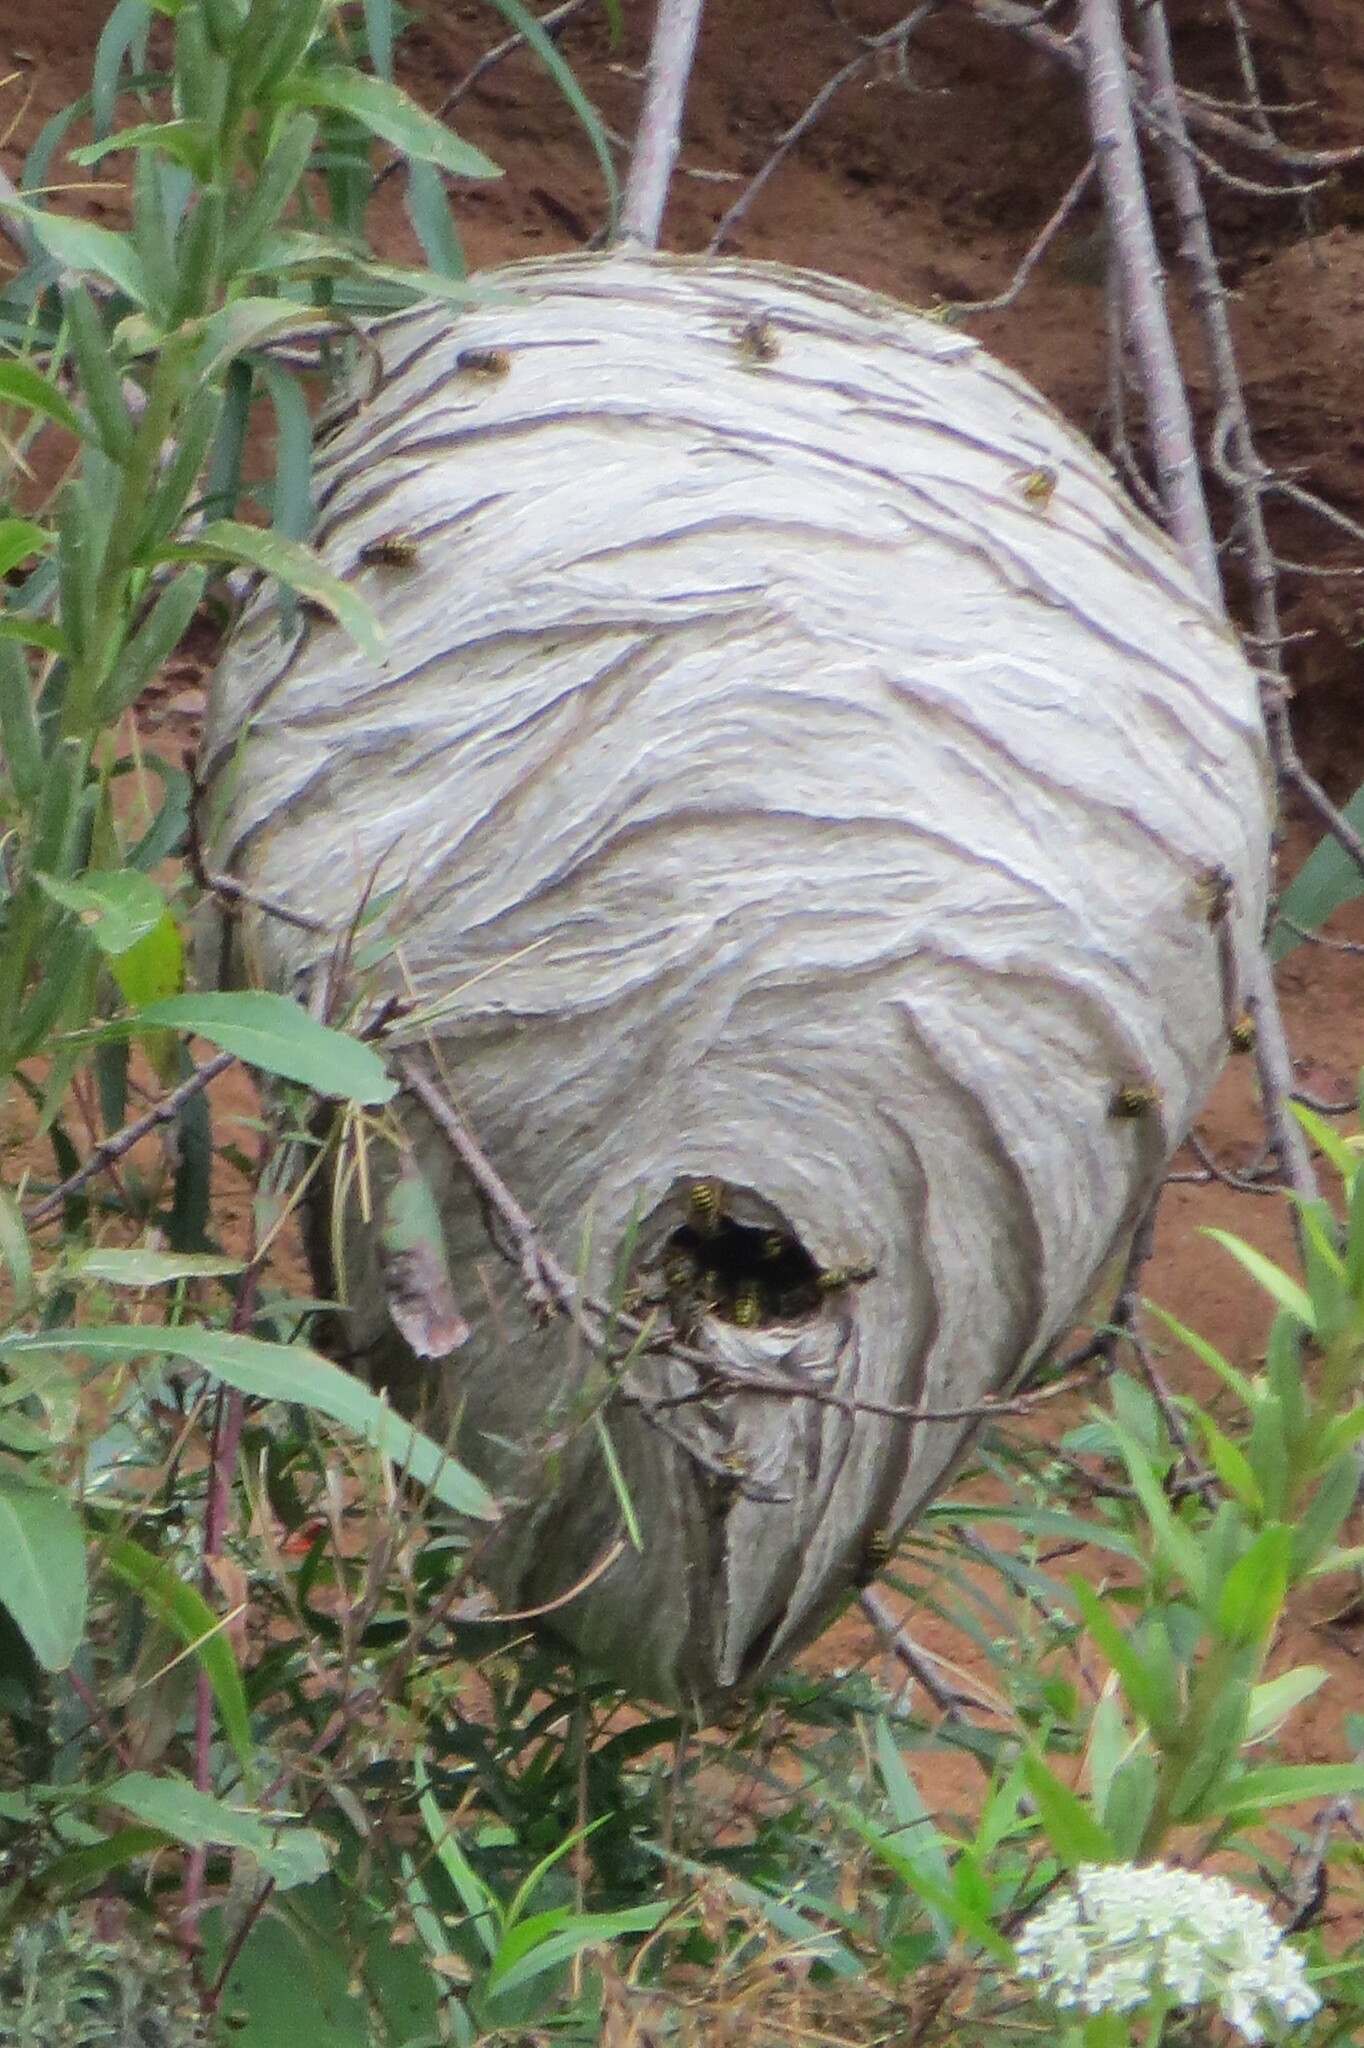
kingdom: Animalia
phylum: Arthropoda
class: Insecta
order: Hymenoptera
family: Vespidae
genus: Dolichovespula
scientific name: Dolichovespula arenaria
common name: Aerial yellowjacket
